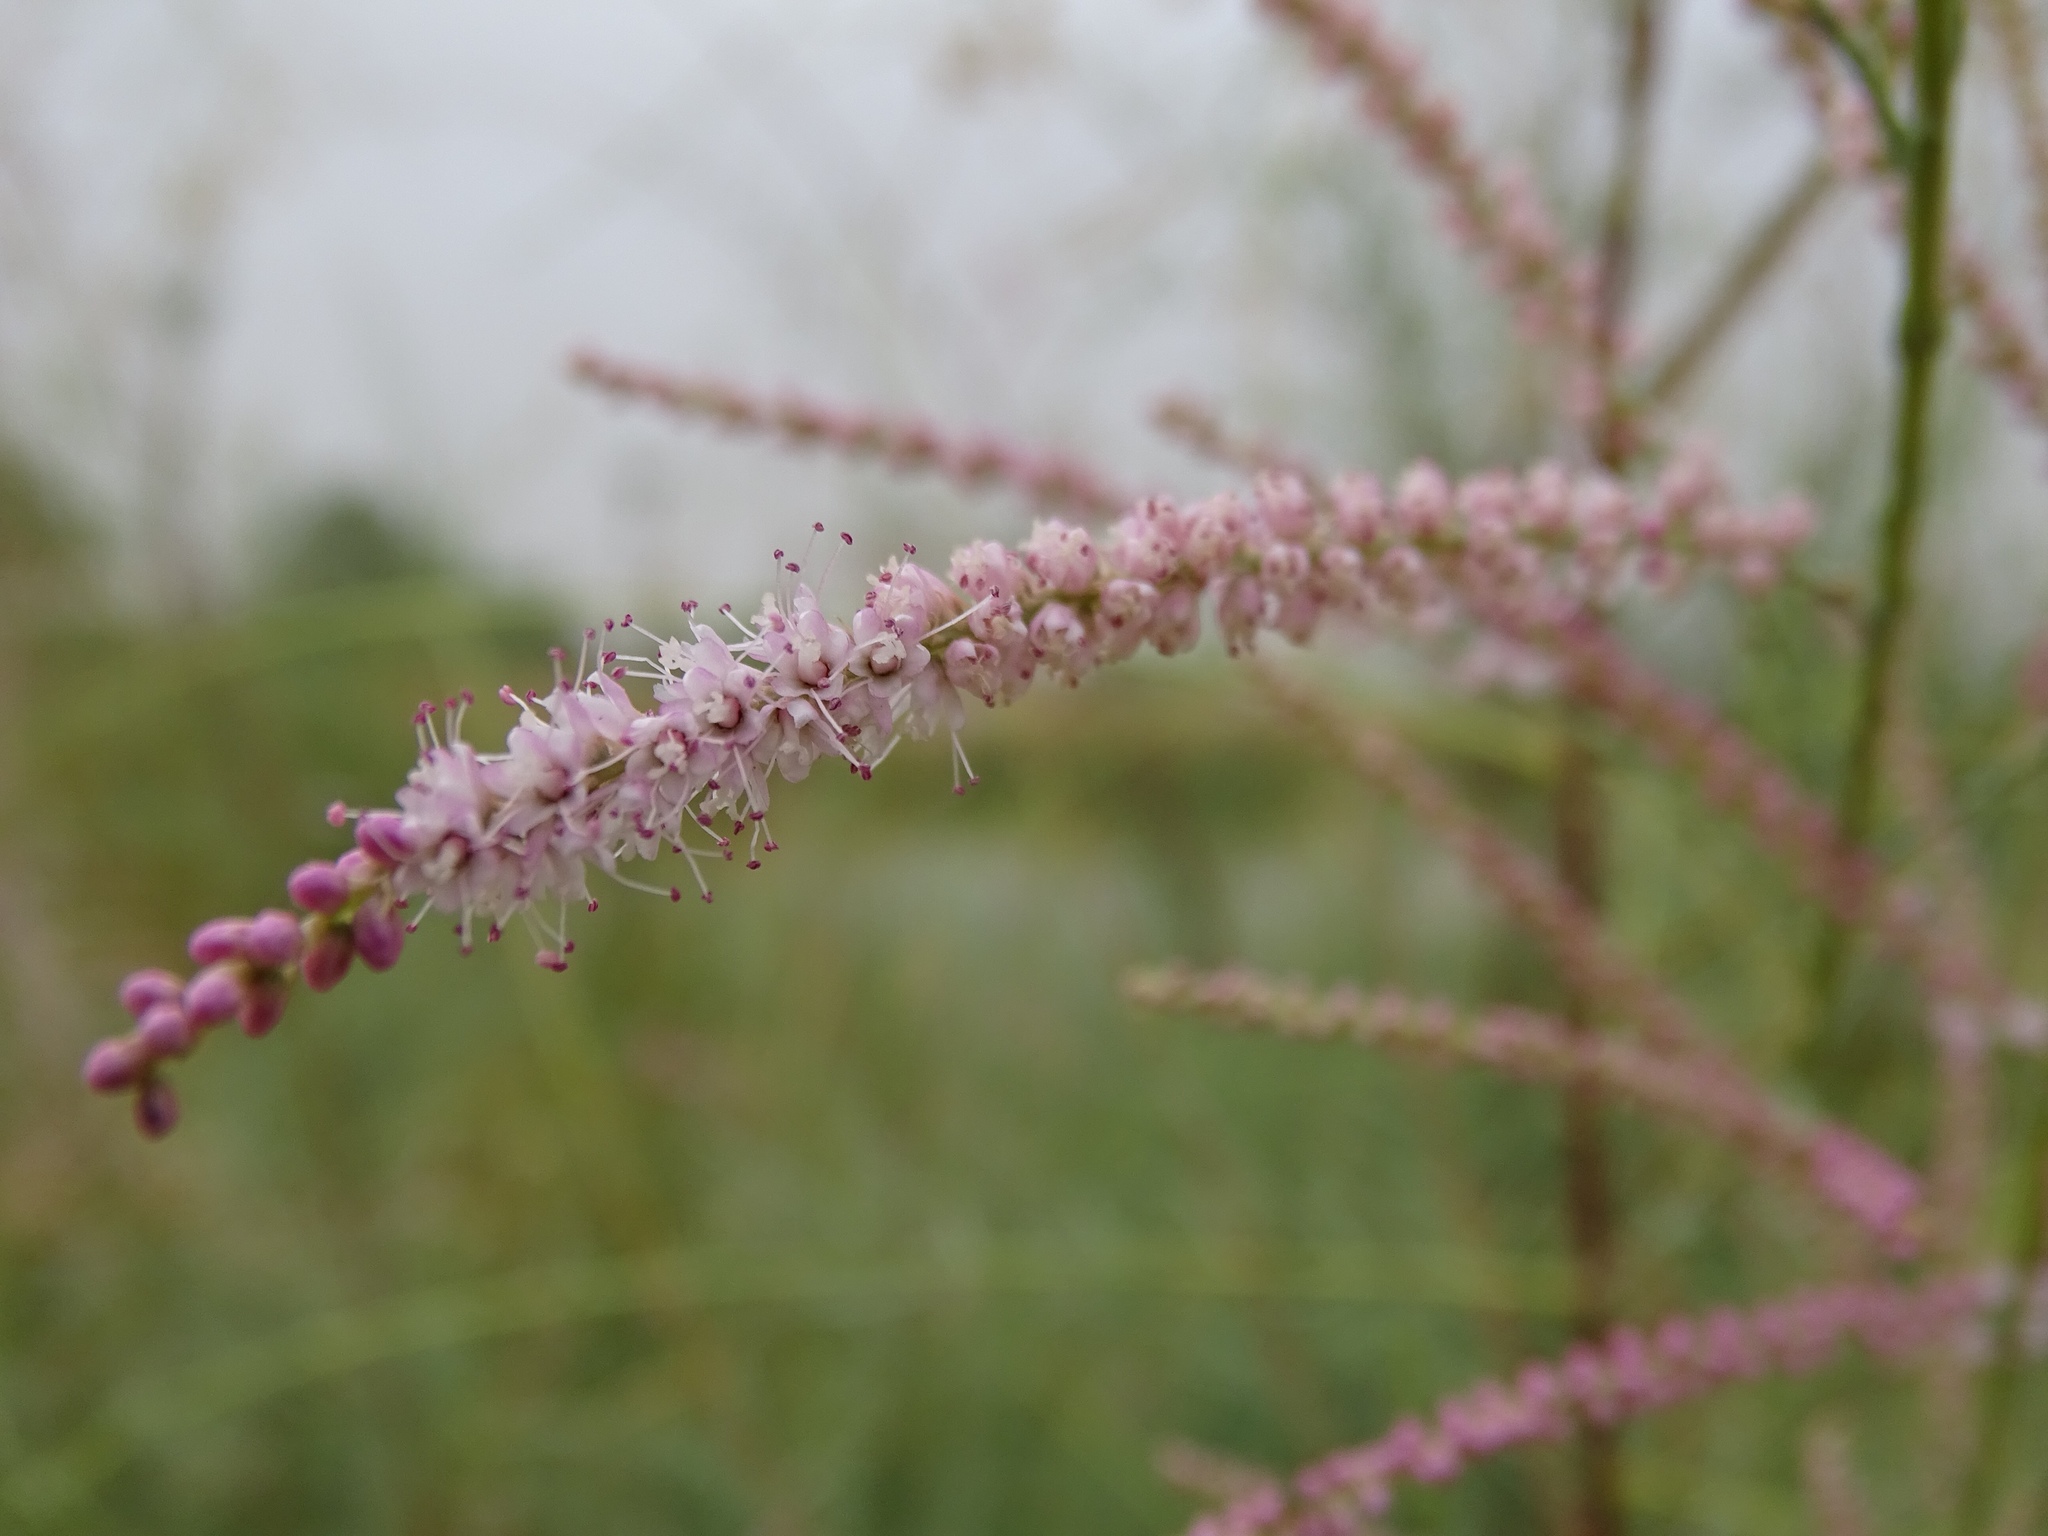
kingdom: Plantae
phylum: Tracheophyta
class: Magnoliopsida
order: Caryophyllales
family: Tamaricaceae
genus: Tamarix
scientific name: Tamarix ramosissima
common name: Pink tamarisk
